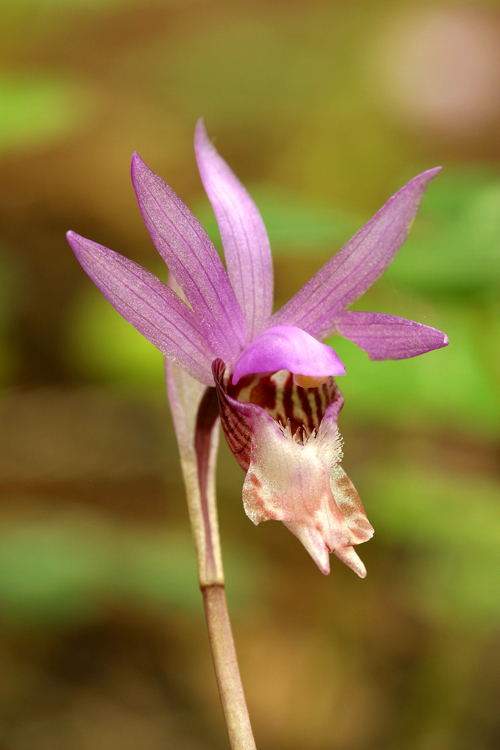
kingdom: Plantae
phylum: Tracheophyta
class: Liliopsida
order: Asparagales
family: Orchidaceae
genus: Calypso
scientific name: Calypso bulbosa
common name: Calypso
